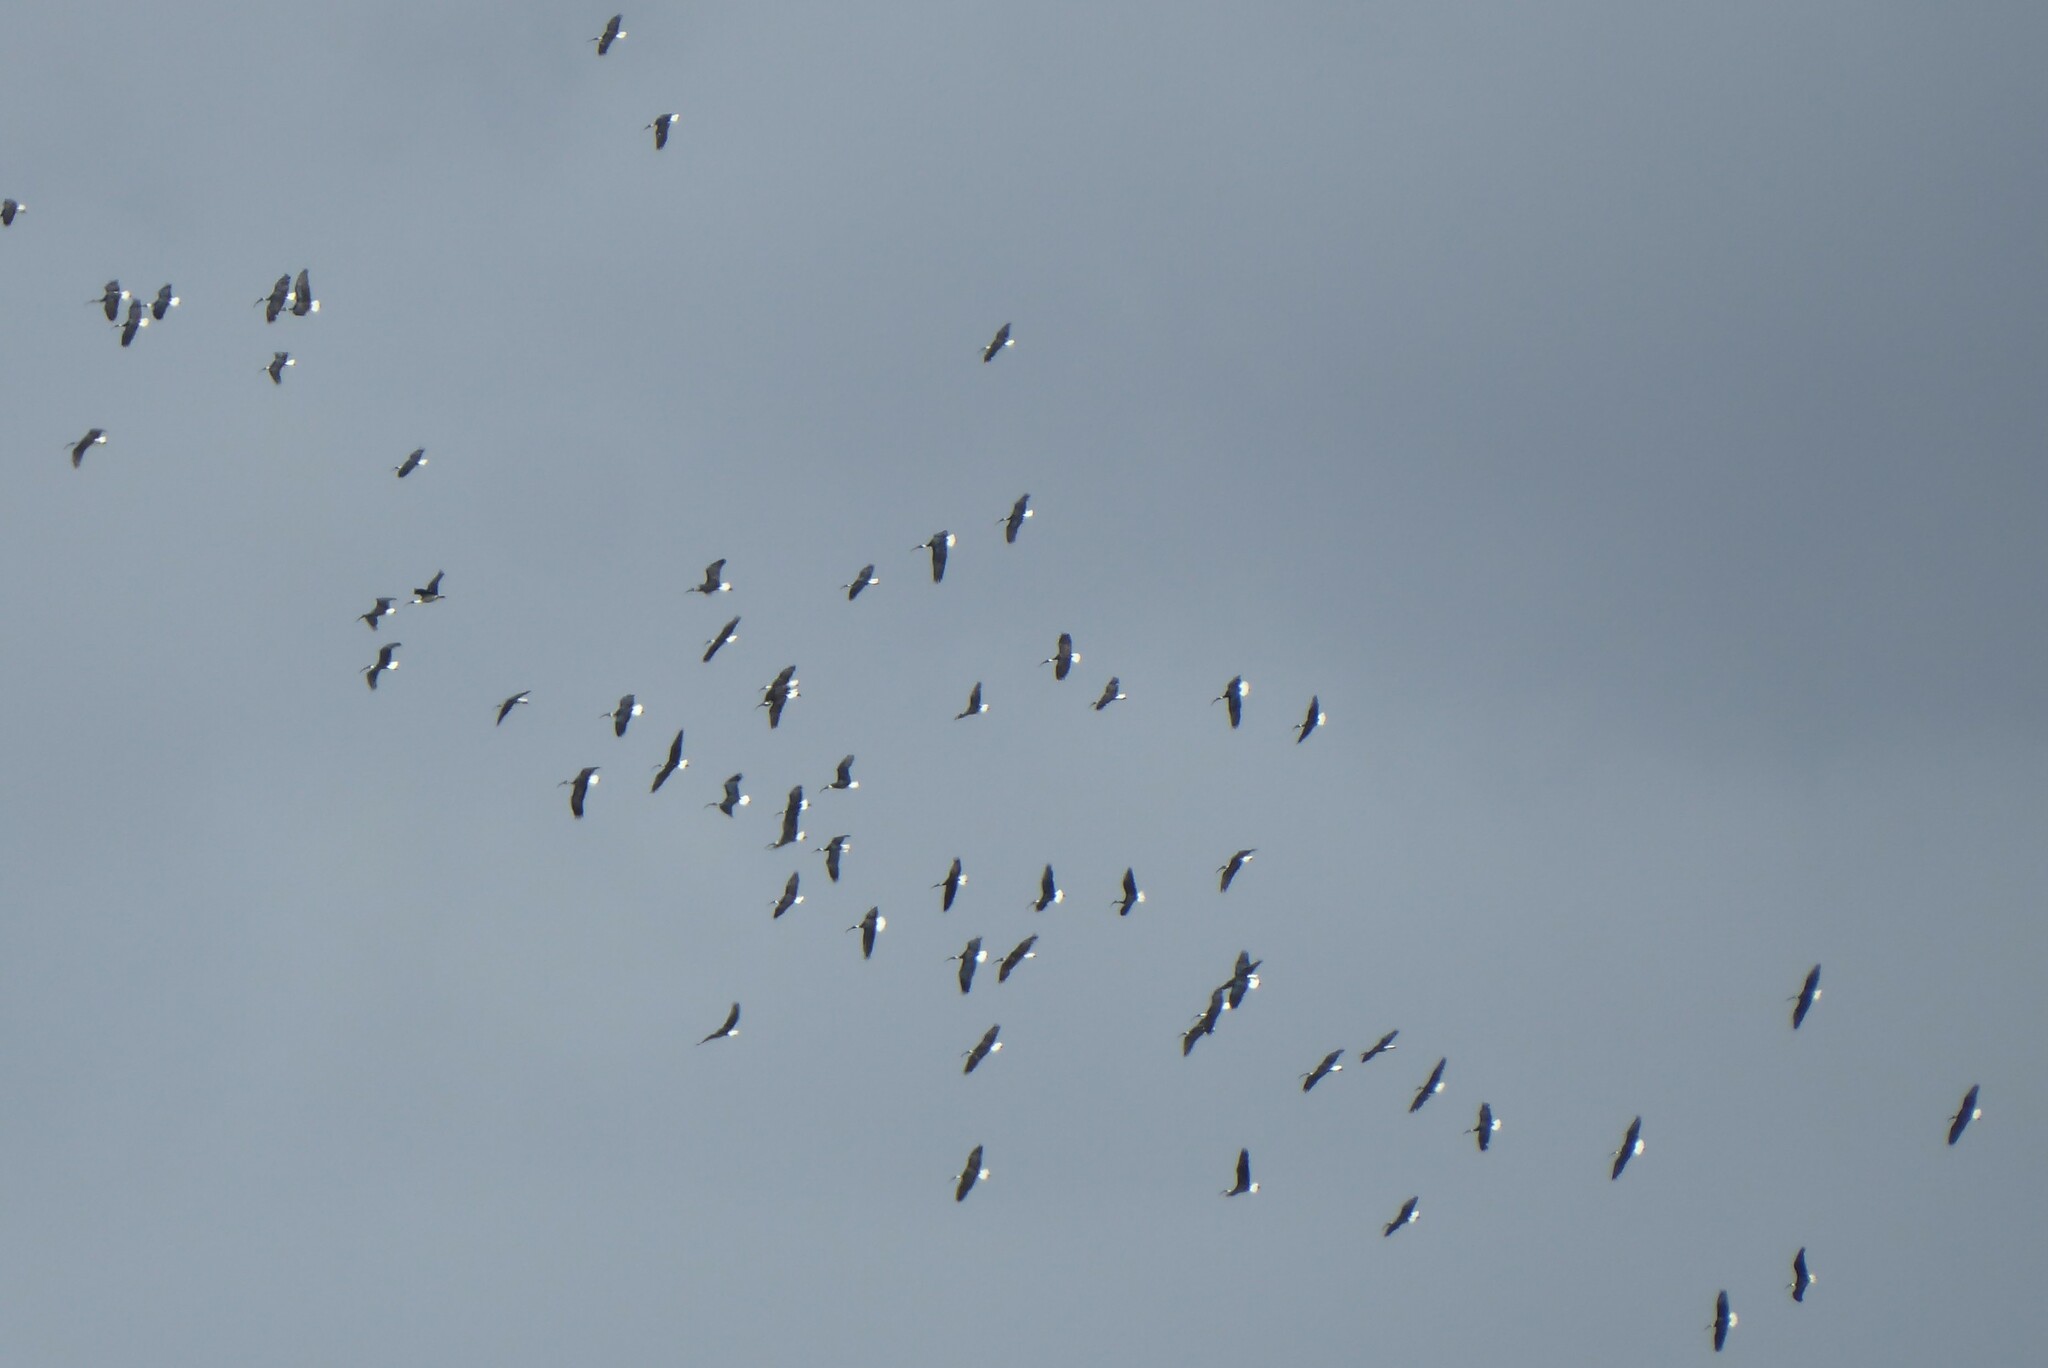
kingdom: Animalia
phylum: Chordata
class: Aves
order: Pelecaniformes
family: Threskiornithidae
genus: Threskiornis
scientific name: Threskiornis spinicollis
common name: Straw-necked ibis
